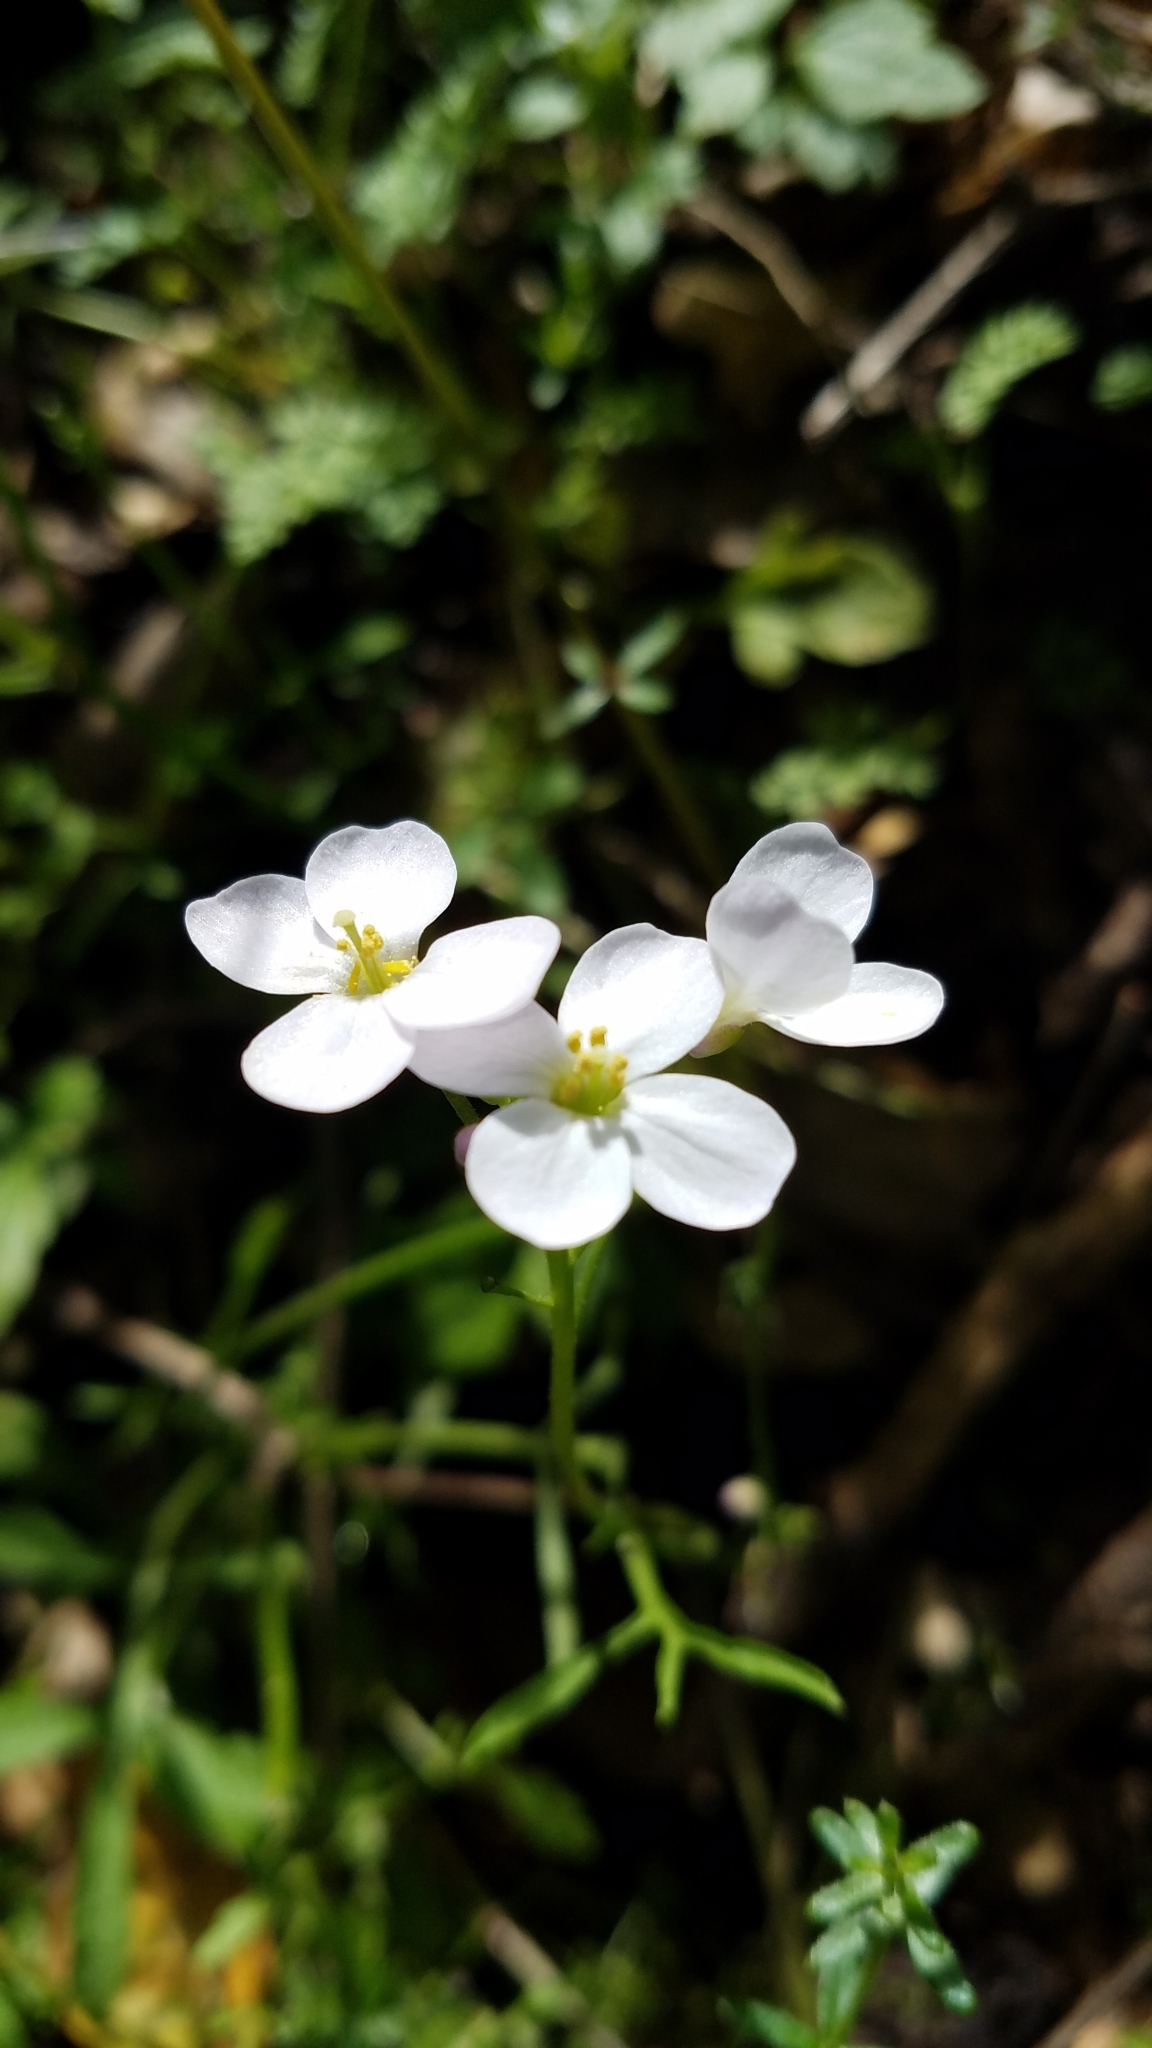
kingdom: Plantae
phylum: Tracheophyta
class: Magnoliopsida
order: Brassicales
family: Brassicaceae
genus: Cardamine
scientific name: Cardamine californica
